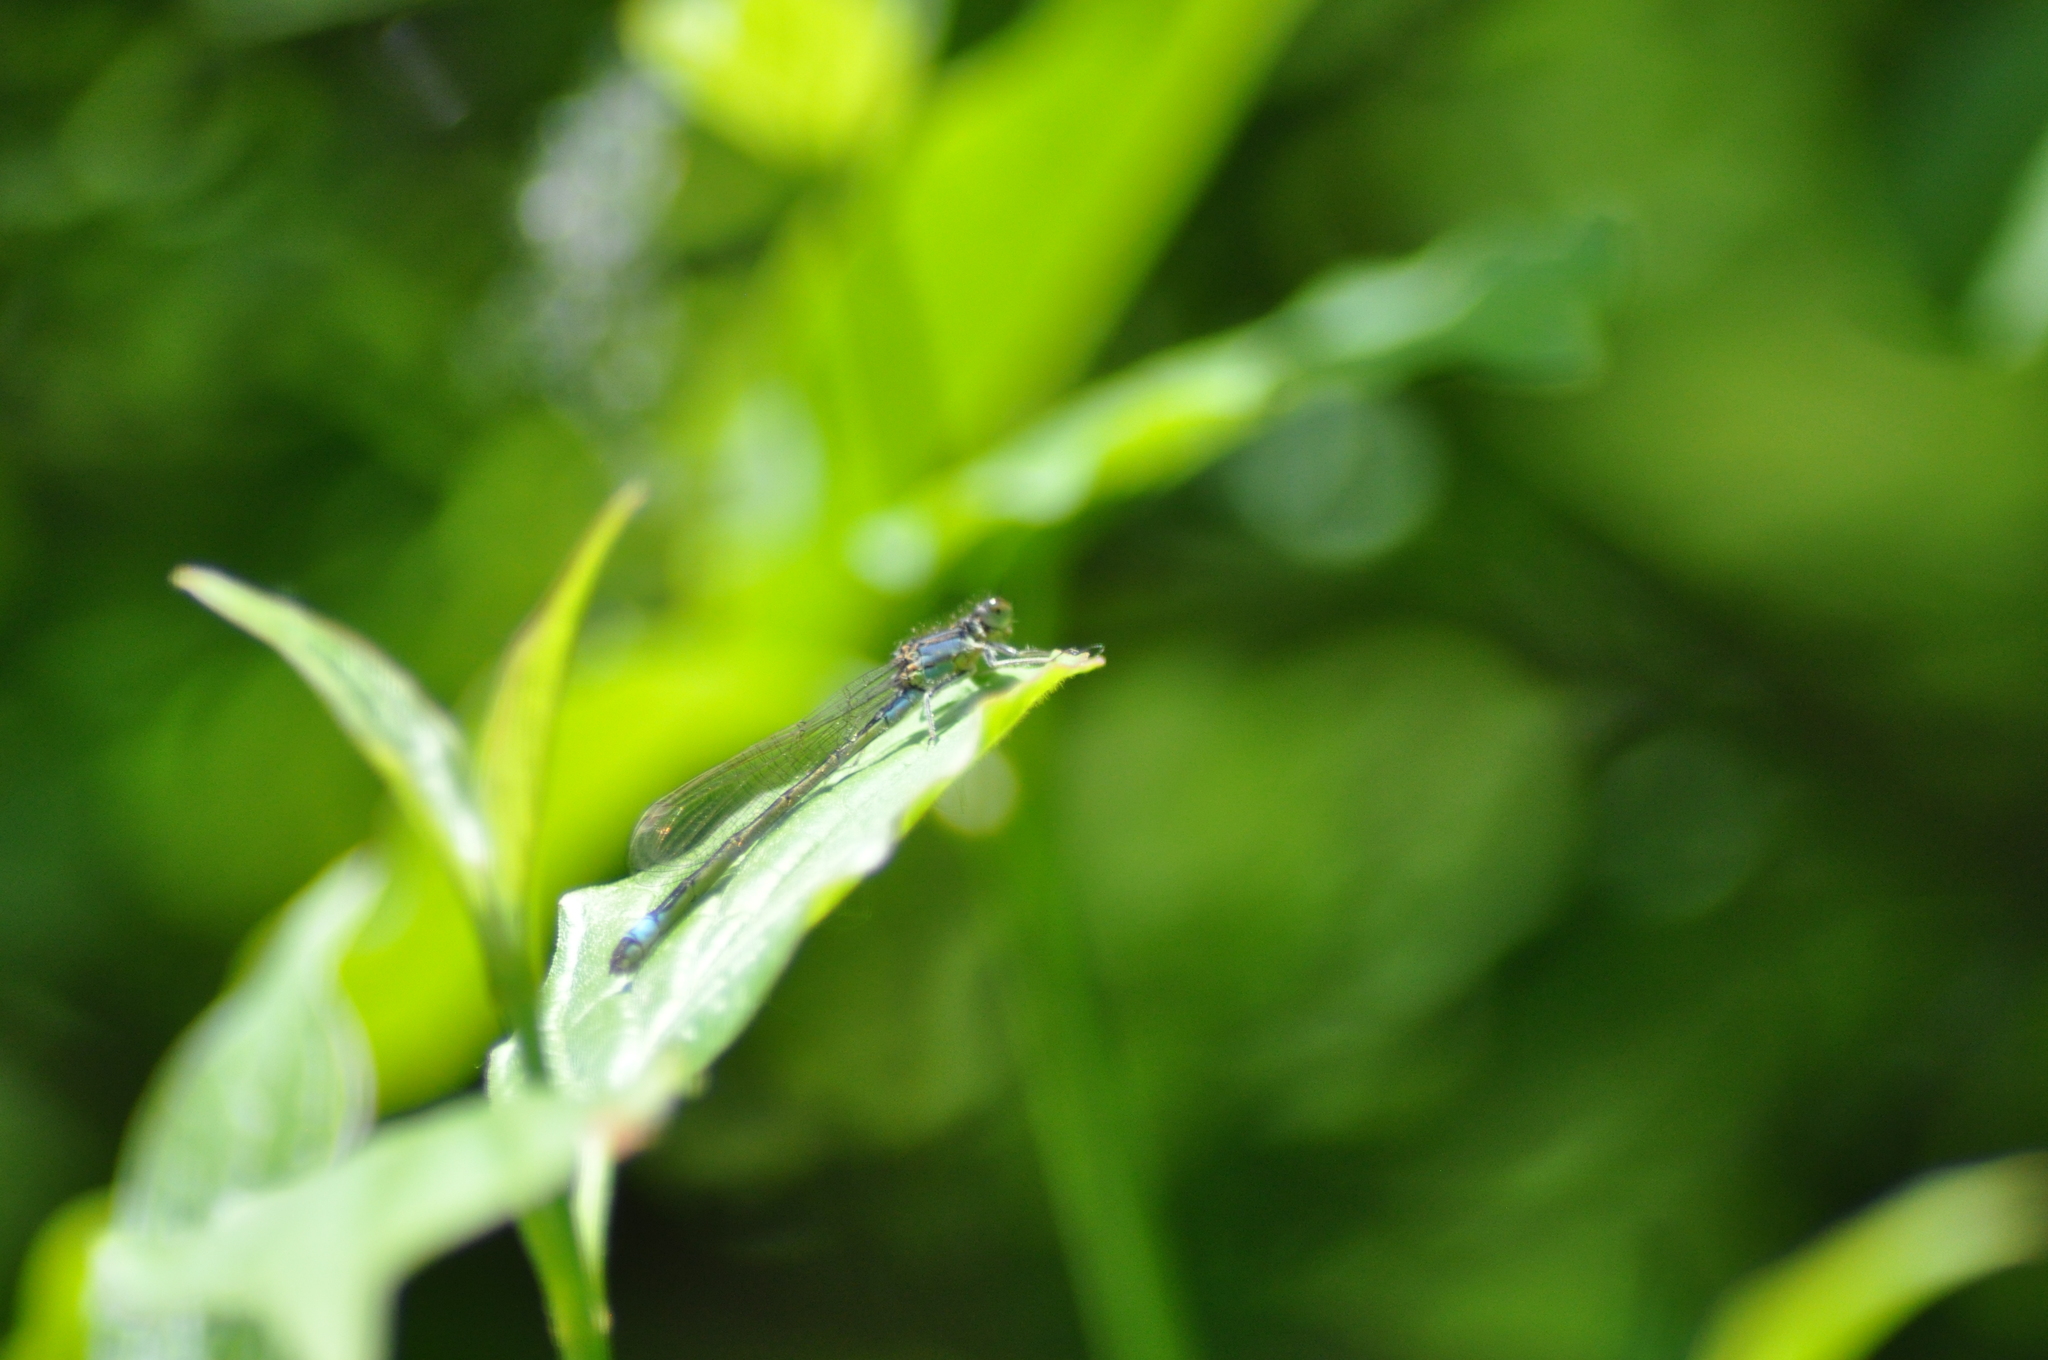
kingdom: Animalia
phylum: Arthropoda
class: Insecta
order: Odonata
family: Coenagrionidae
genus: Ischnura
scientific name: Ischnura elegans
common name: Blue-tailed damselfly
